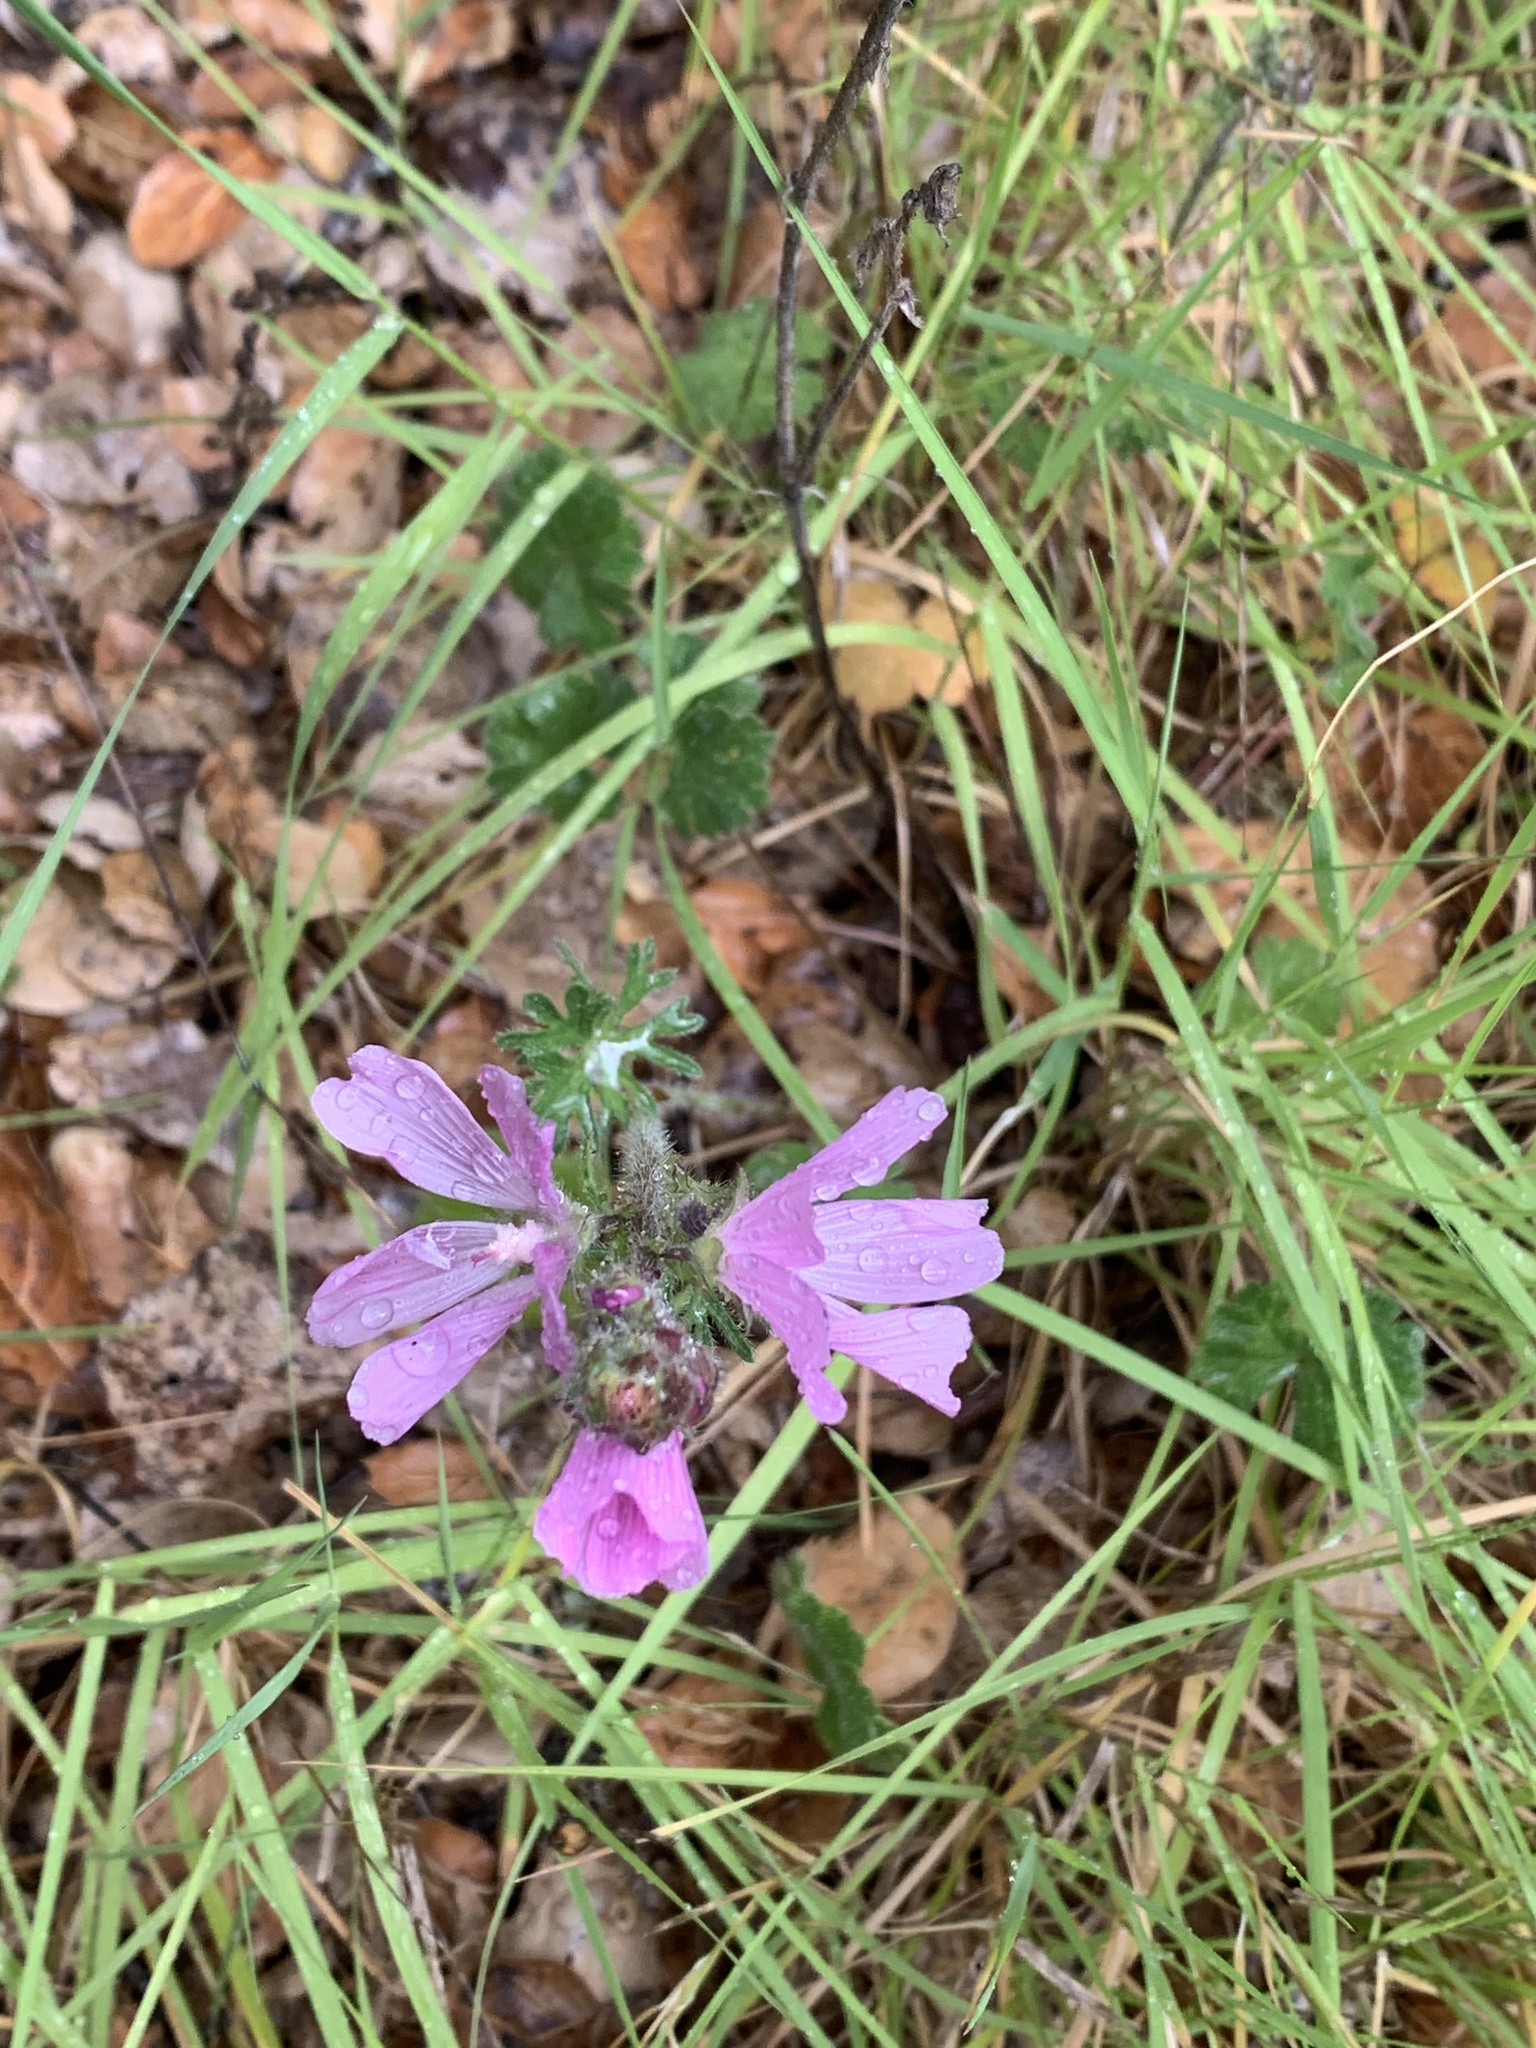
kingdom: Plantae
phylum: Tracheophyta
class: Magnoliopsida
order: Malvales
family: Malvaceae
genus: Sidalcea
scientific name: Sidalcea malviflora
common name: Greek mallow
